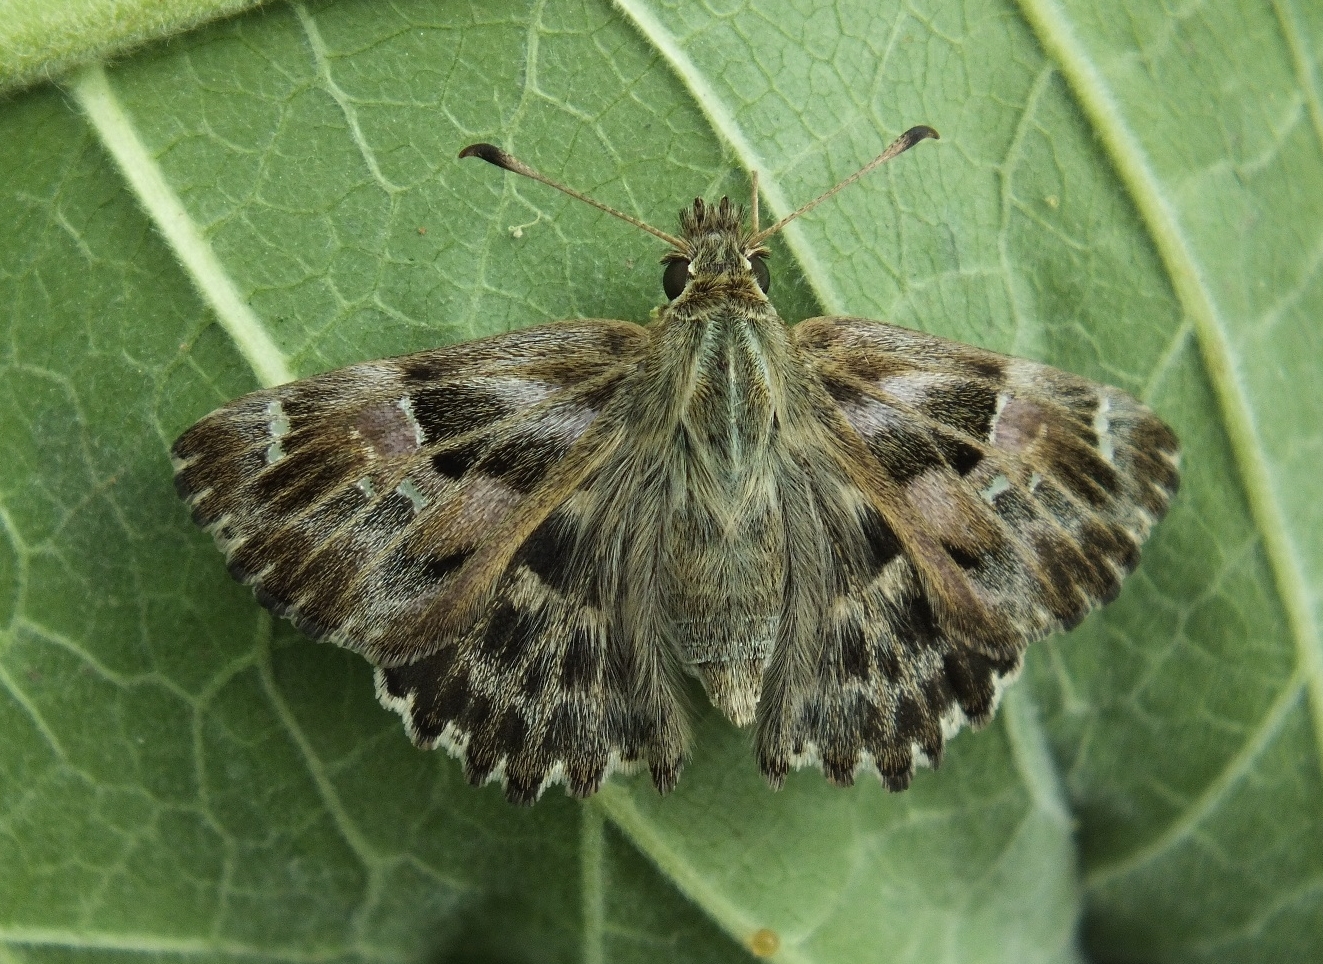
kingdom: Animalia
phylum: Arthropoda
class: Insecta
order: Lepidoptera
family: Hesperiidae
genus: Carcharodus
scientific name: Carcharodus alceae
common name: Mallow skipper
